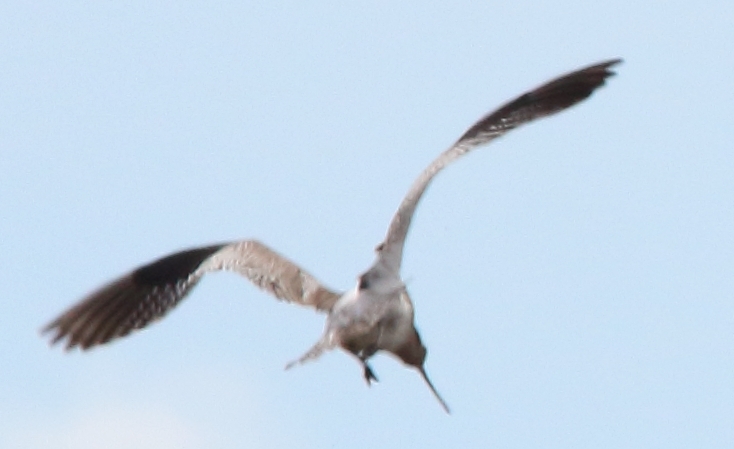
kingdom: Animalia
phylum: Chordata
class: Aves
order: Charadriiformes
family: Scolopacidae
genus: Numenius
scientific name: Numenius arquata
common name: Eurasian curlew
